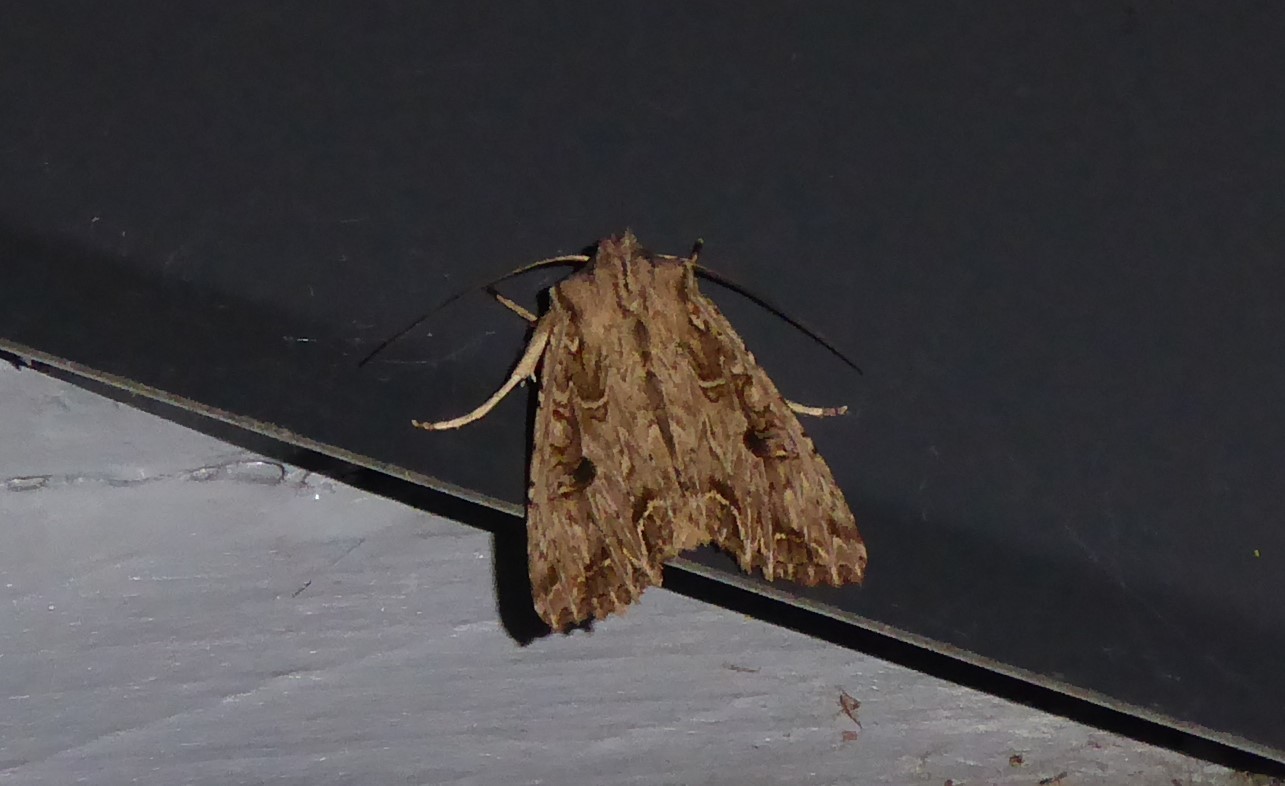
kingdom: Animalia
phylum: Arthropoda
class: Insecta
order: Lepidoptera
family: Noctuidae
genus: Ichneutica
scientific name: Ichneutica lignana
